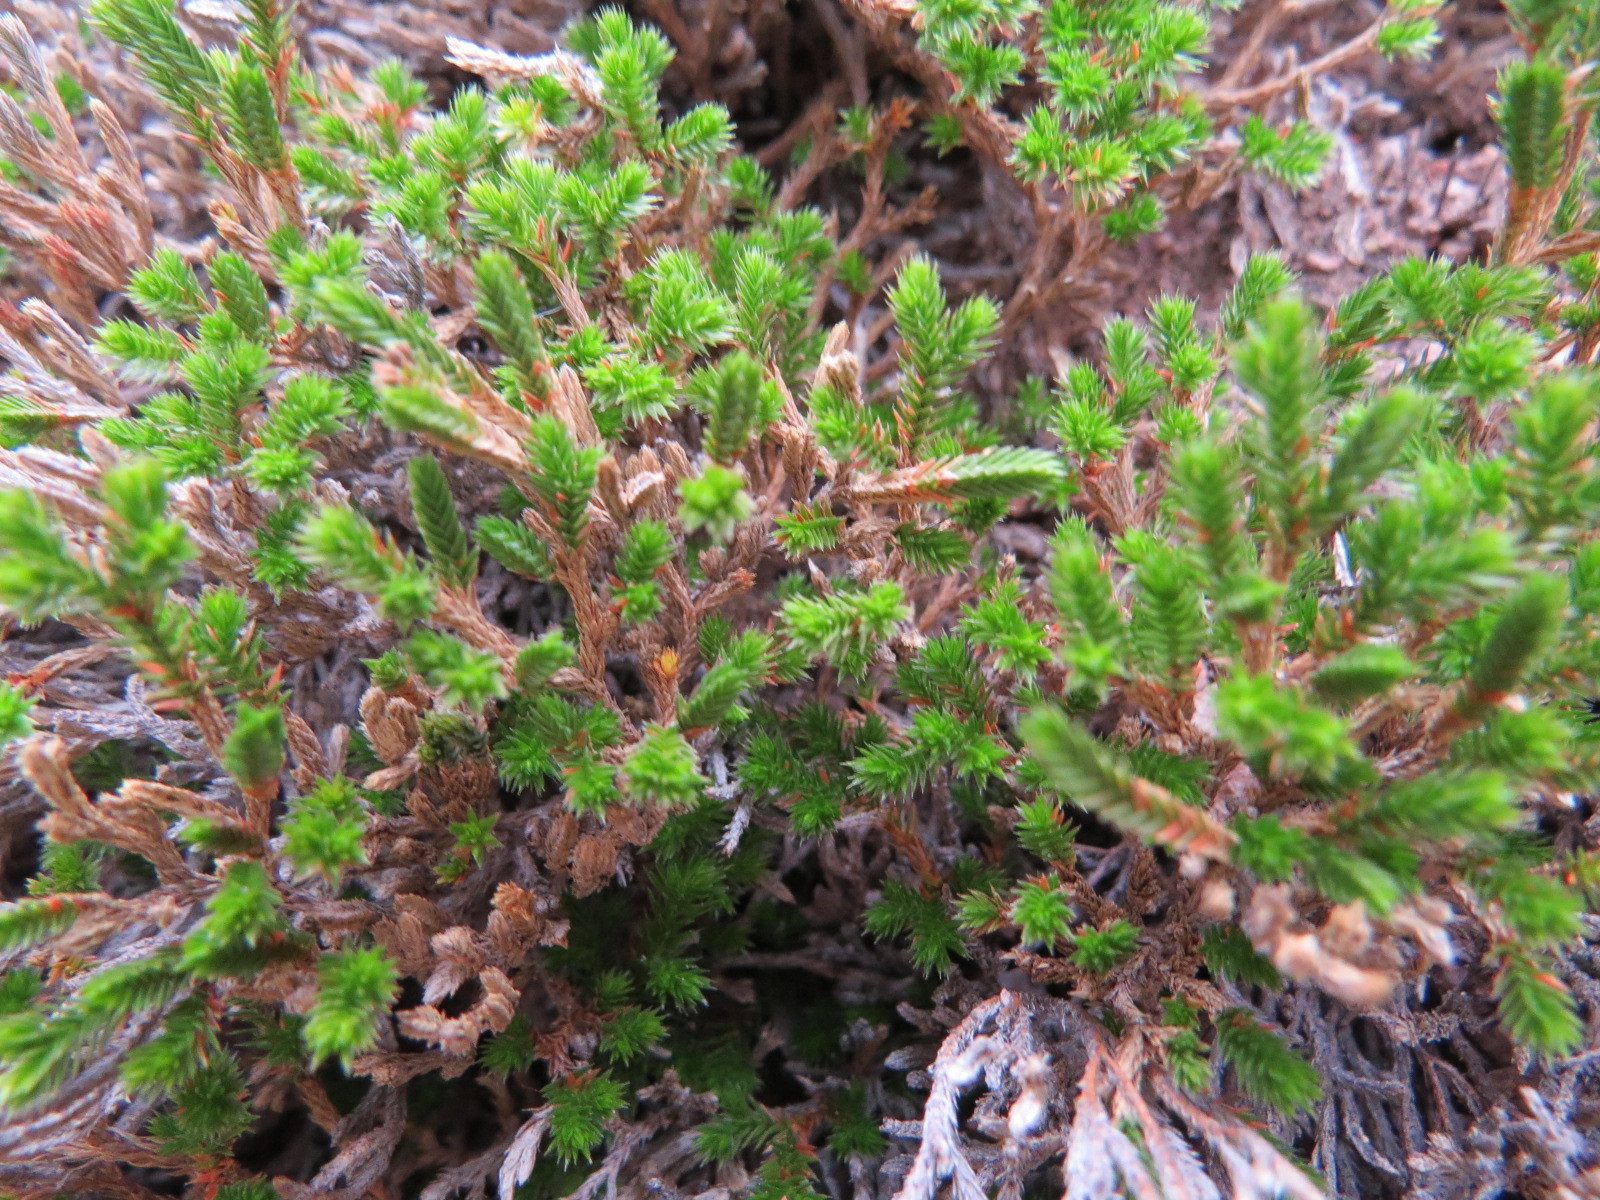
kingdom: Plantae
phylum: Tracheophyta
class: Lycopodiopsida
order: Selaginellales
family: Selaginellaceae
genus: Selaginella
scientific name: Selaginella bigelovii
